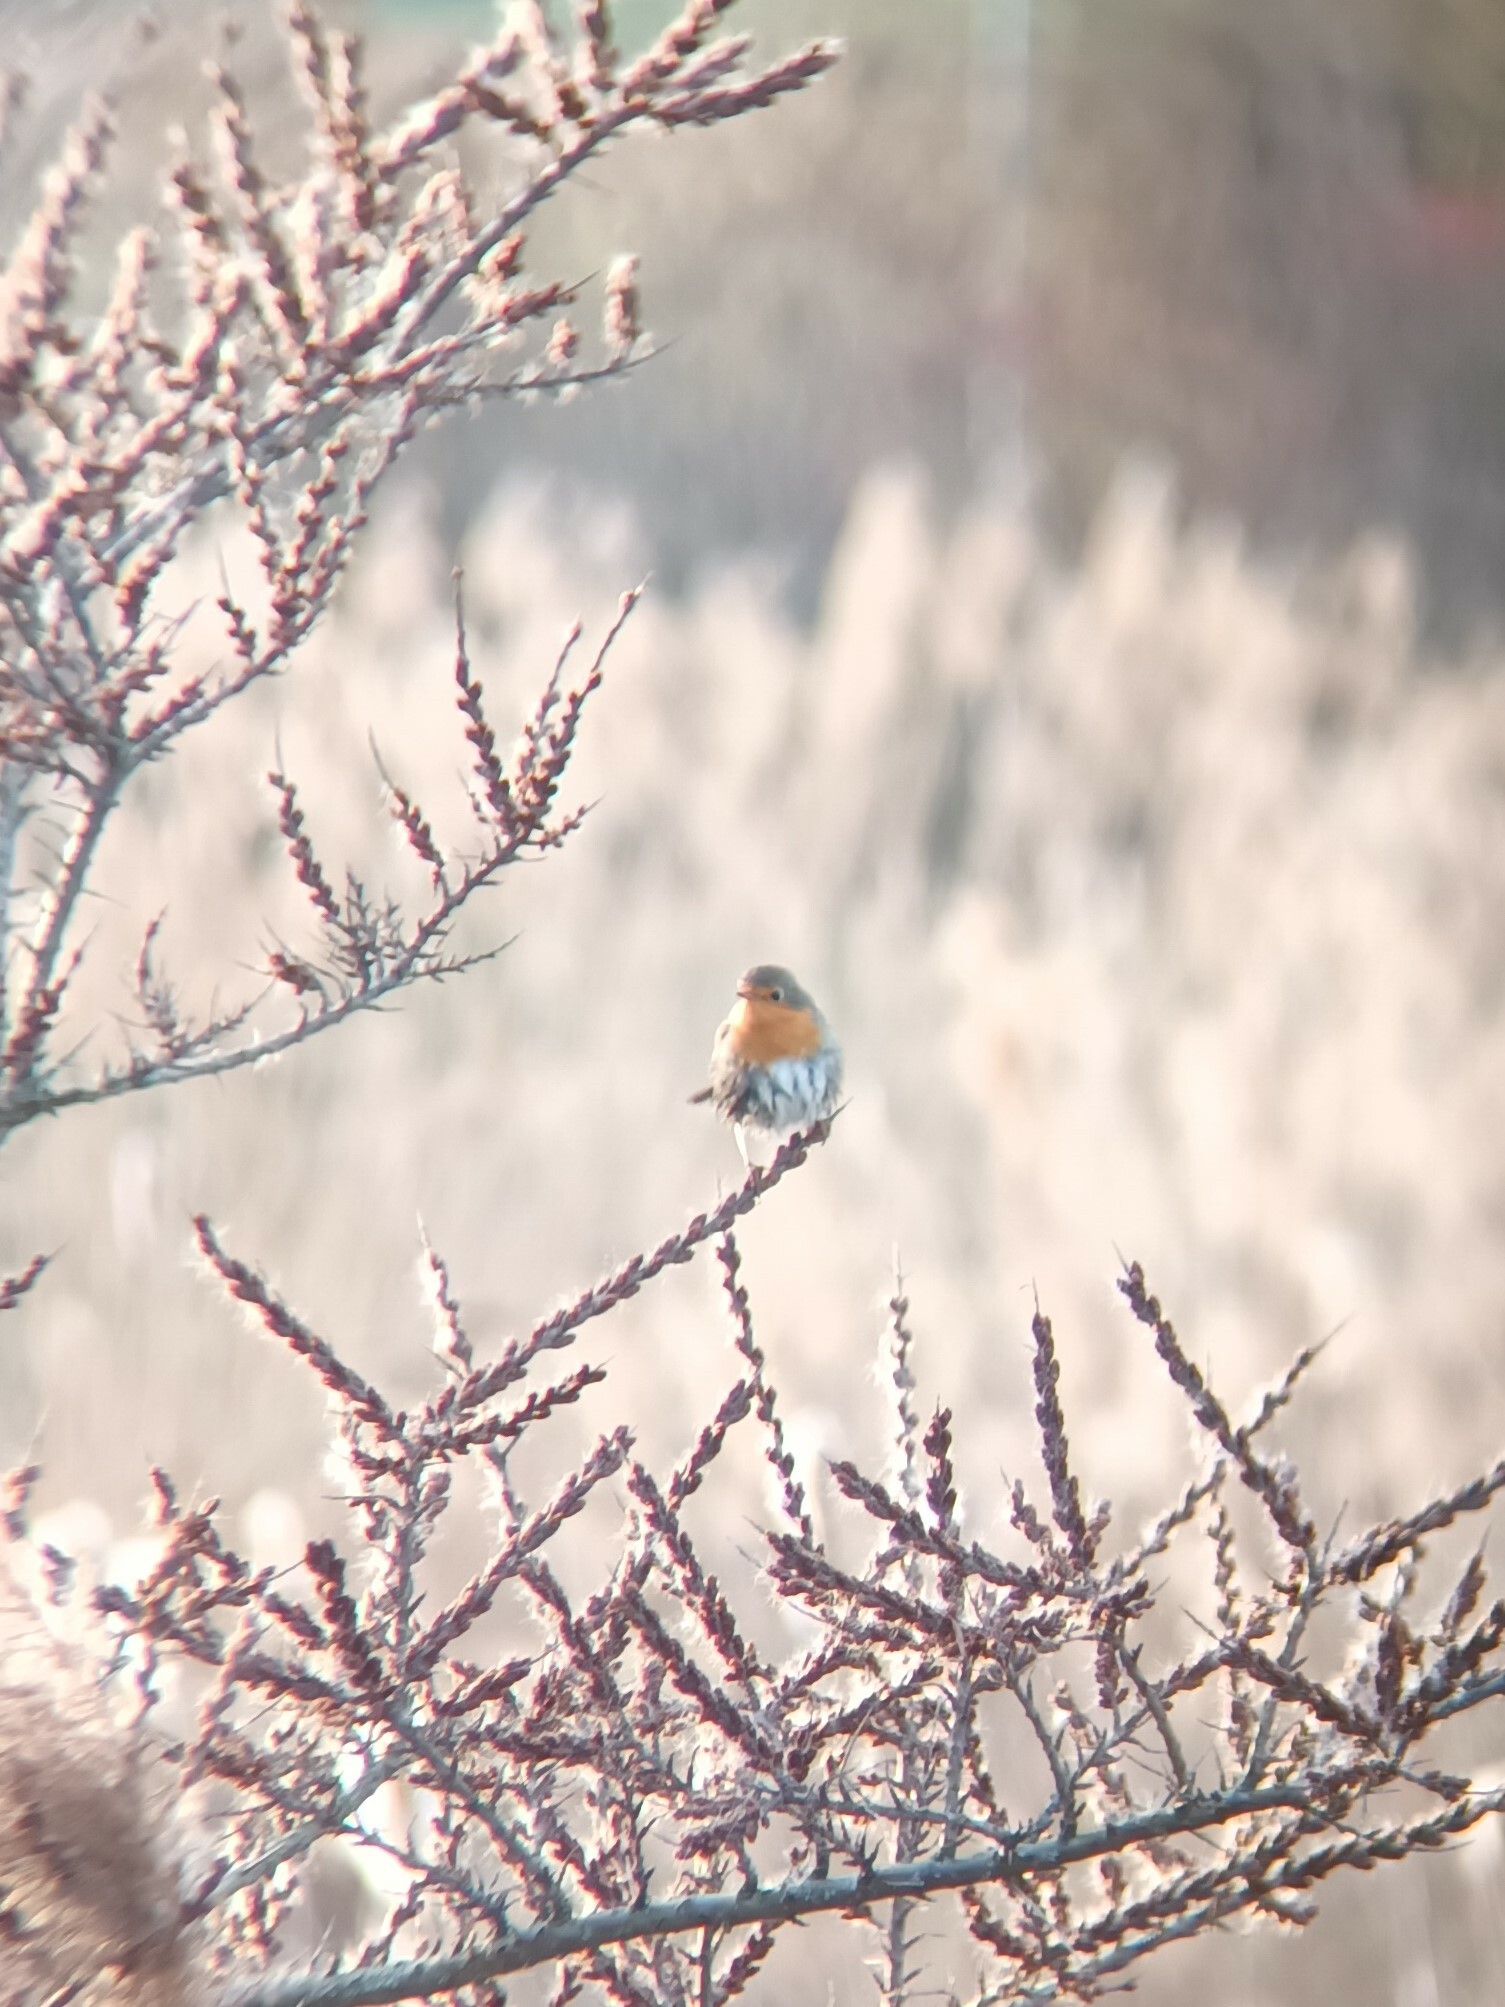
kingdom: Animalia
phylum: Chordata
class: Aves
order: Passeriformes
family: Muscicapidae
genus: Erithacus
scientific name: Erithacus rubecula
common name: European robin
